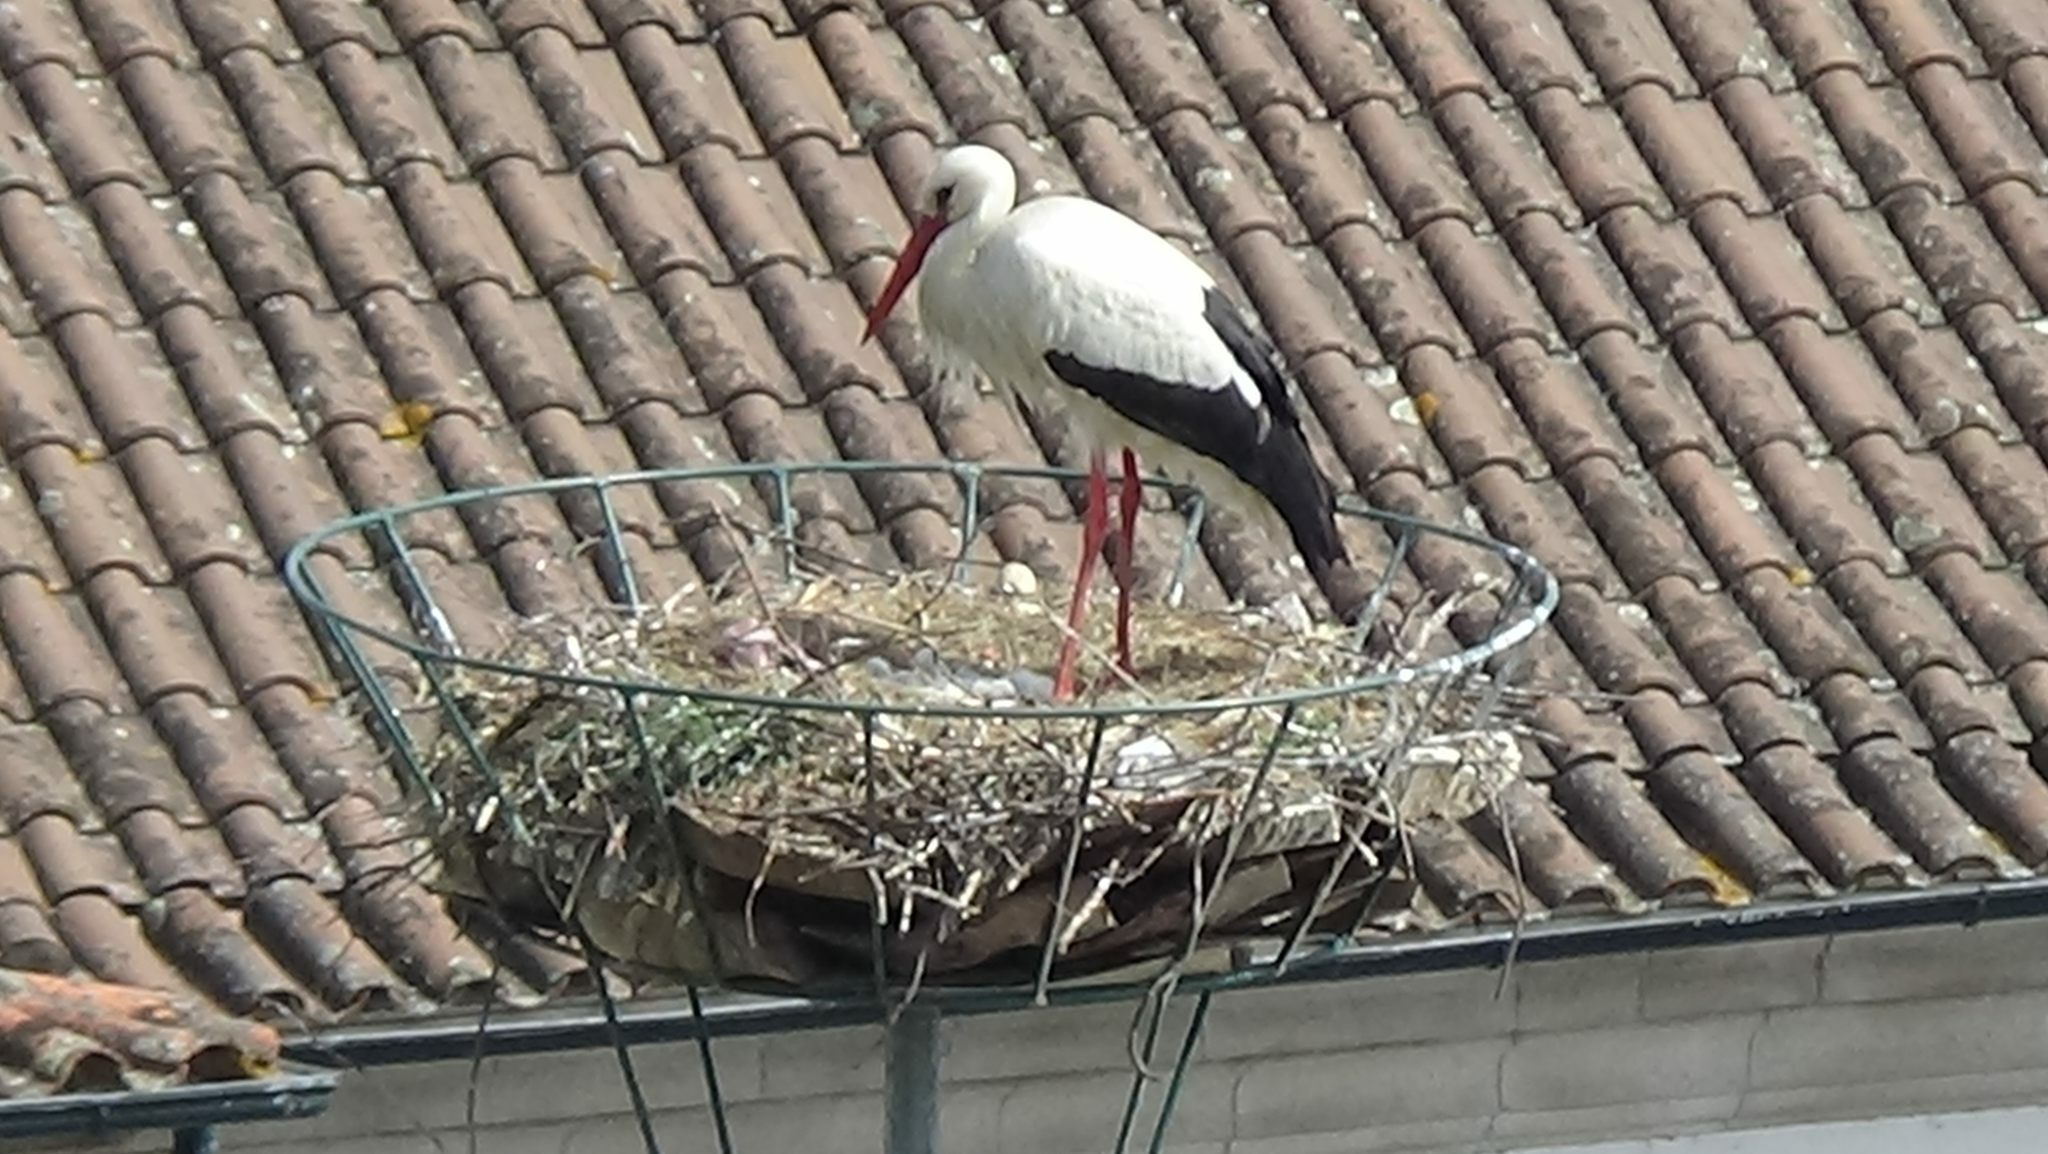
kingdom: Animalia
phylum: Chordata
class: Aves
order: Ciconiiformes
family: Ciconiidae
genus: Ciconia
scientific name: Ciconia ciconia
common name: White stork
